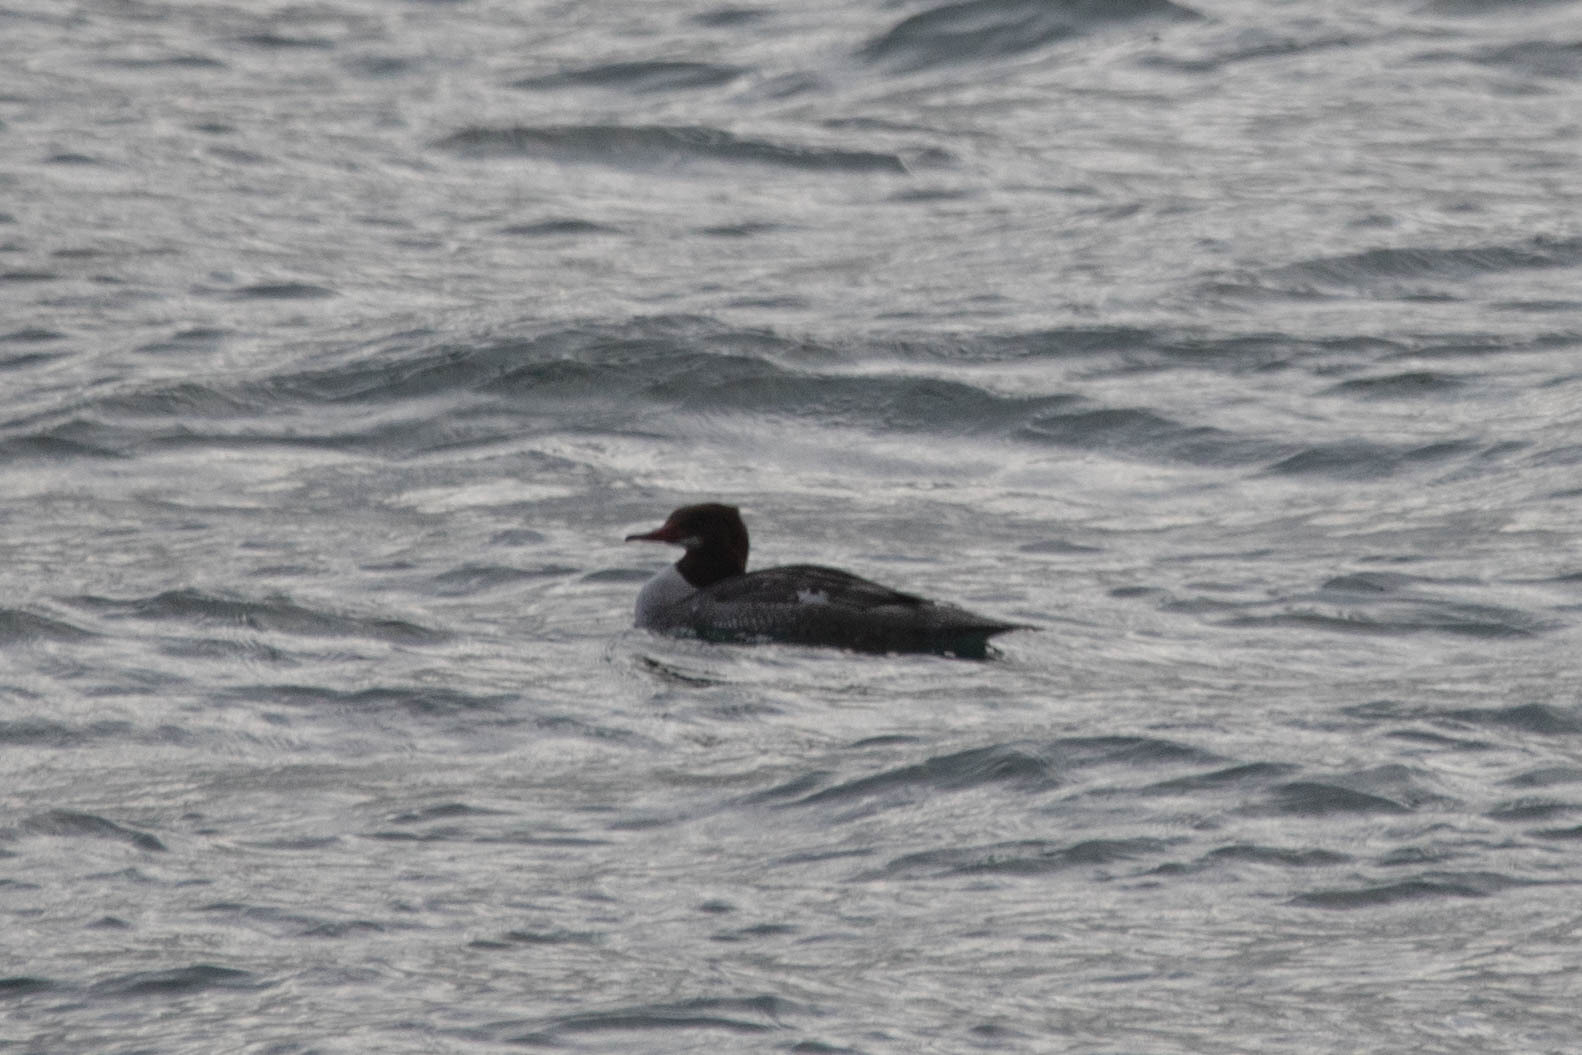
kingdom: Animalia
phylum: Chordata
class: Aves
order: Anseriformes
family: Anatidae
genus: Mergus
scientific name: Mergus merganser
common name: Common merganser
